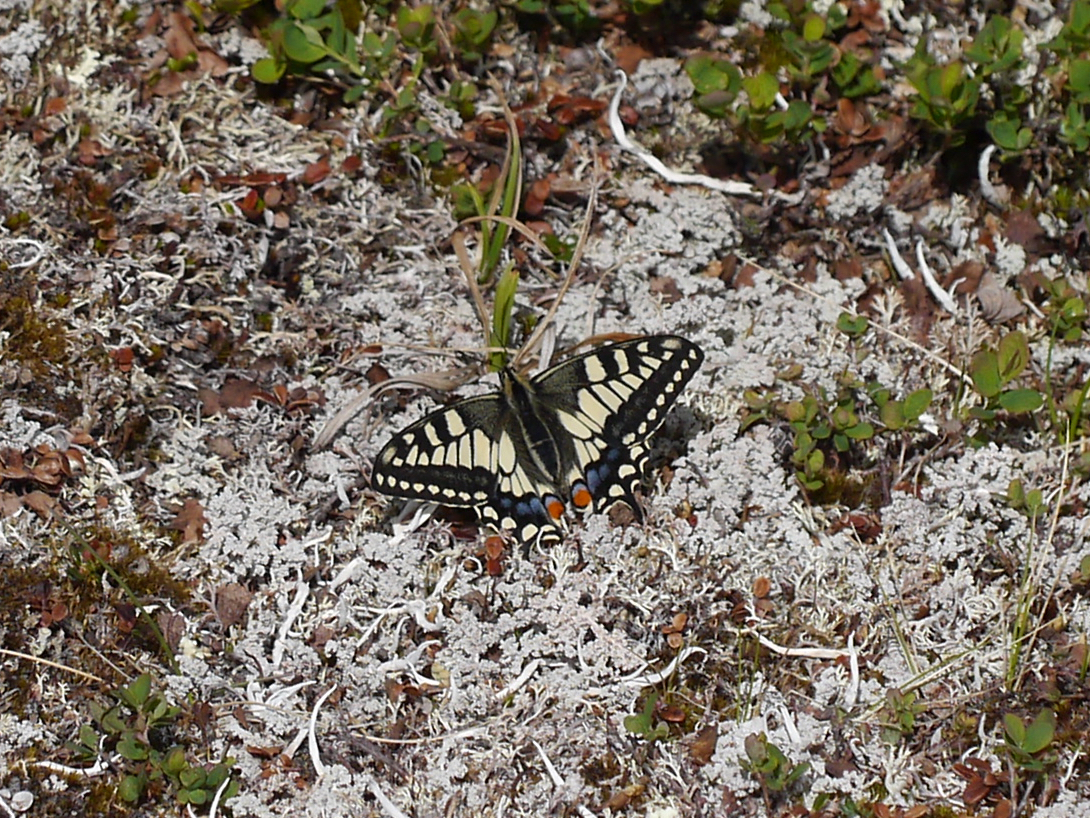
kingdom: Animalia
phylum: Arthropoda
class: Insecta
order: Lepidoptera
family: Papilionidae
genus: Papilio
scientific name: Papilio machaon
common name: Swallowtail
